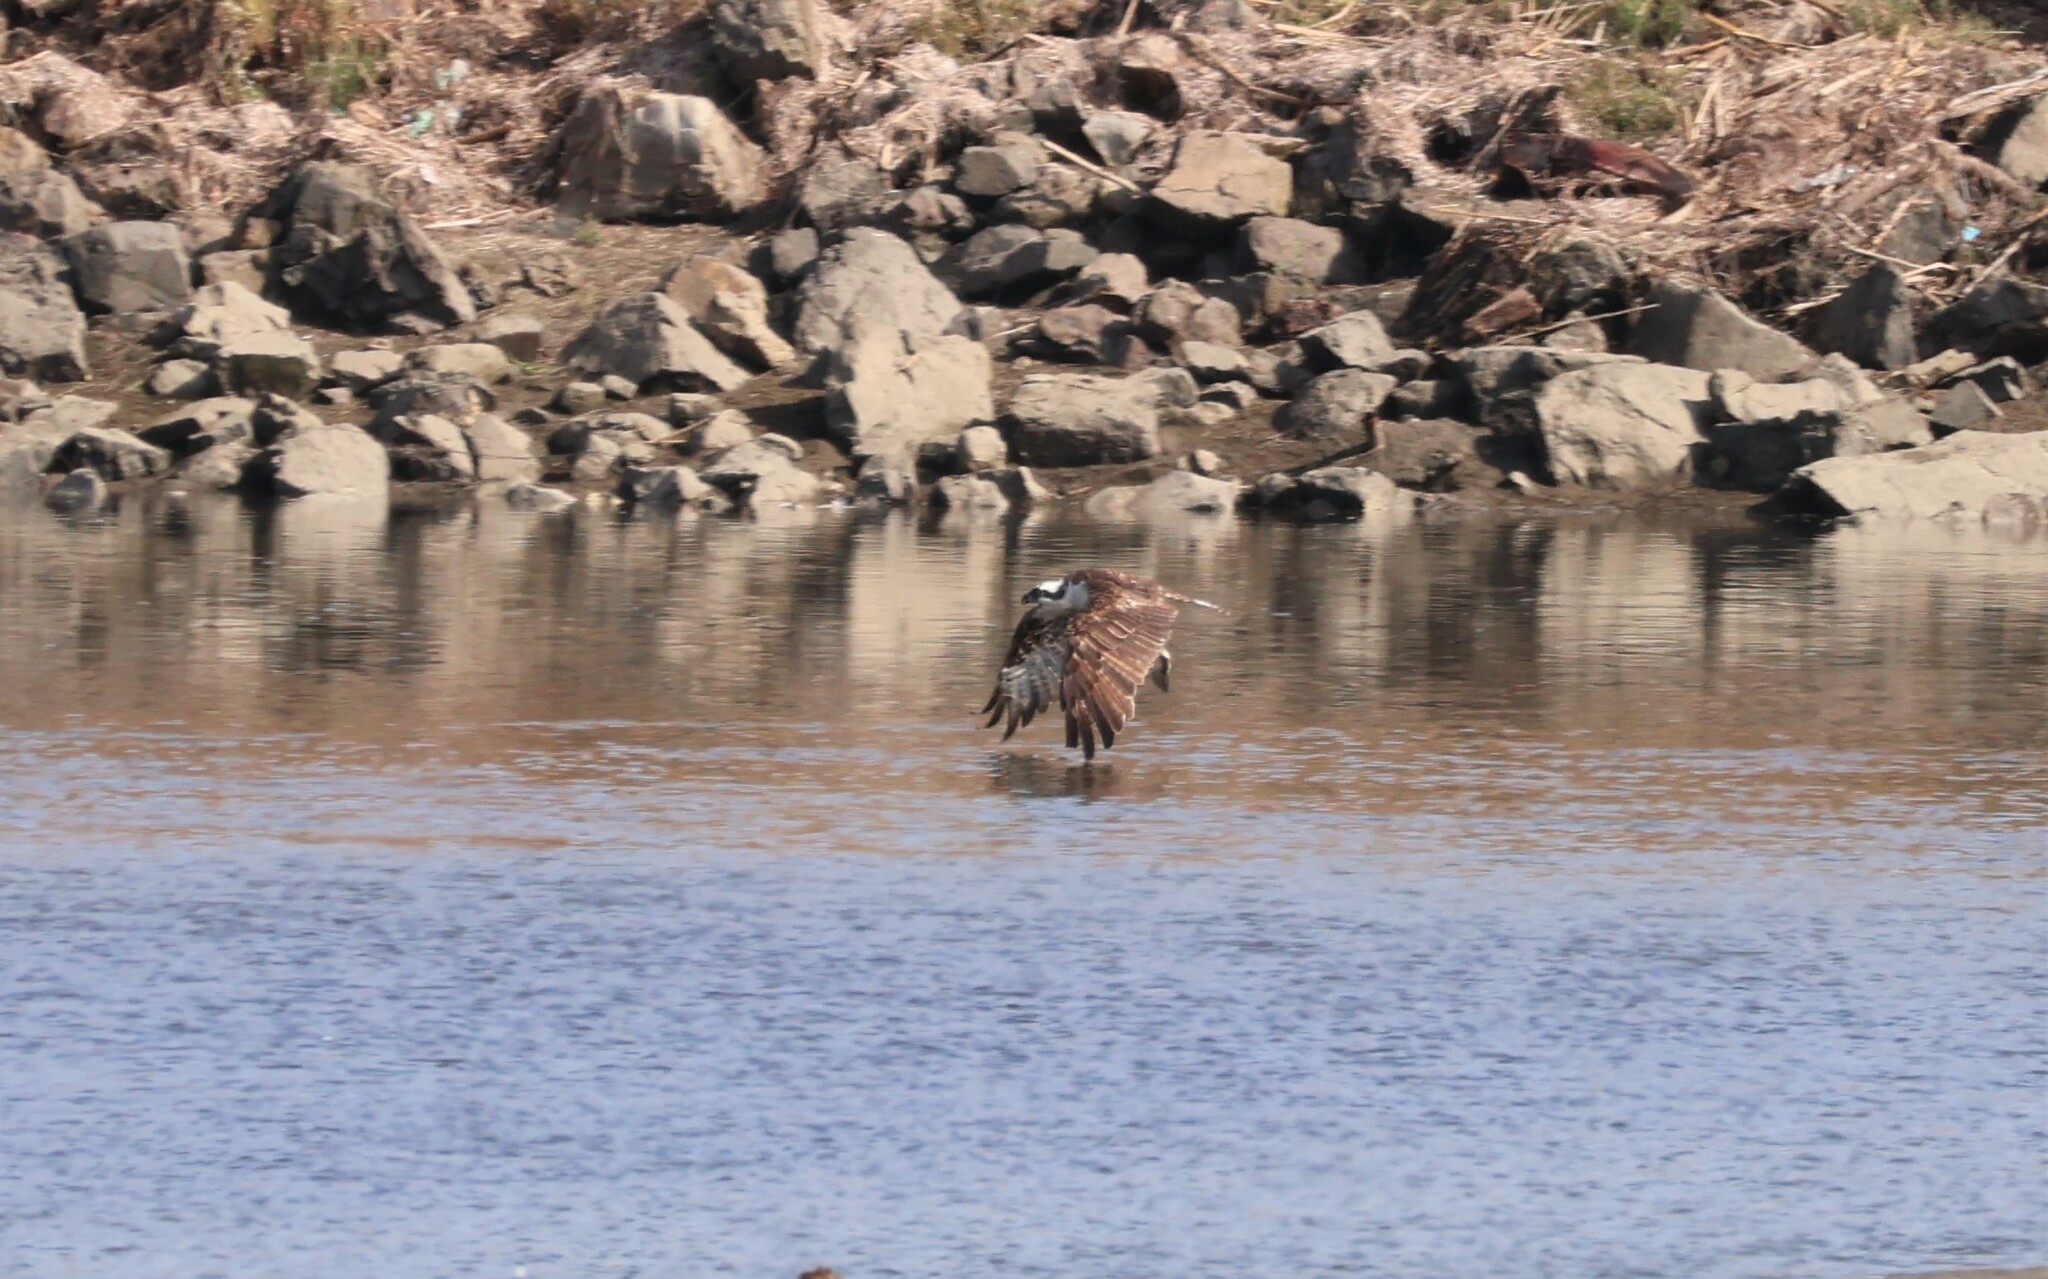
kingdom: Animalia
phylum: Chordata
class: Aves
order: Accipitriformes
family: Pandionidae
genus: Pandion
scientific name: Pandion haliaetus
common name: Osprey
